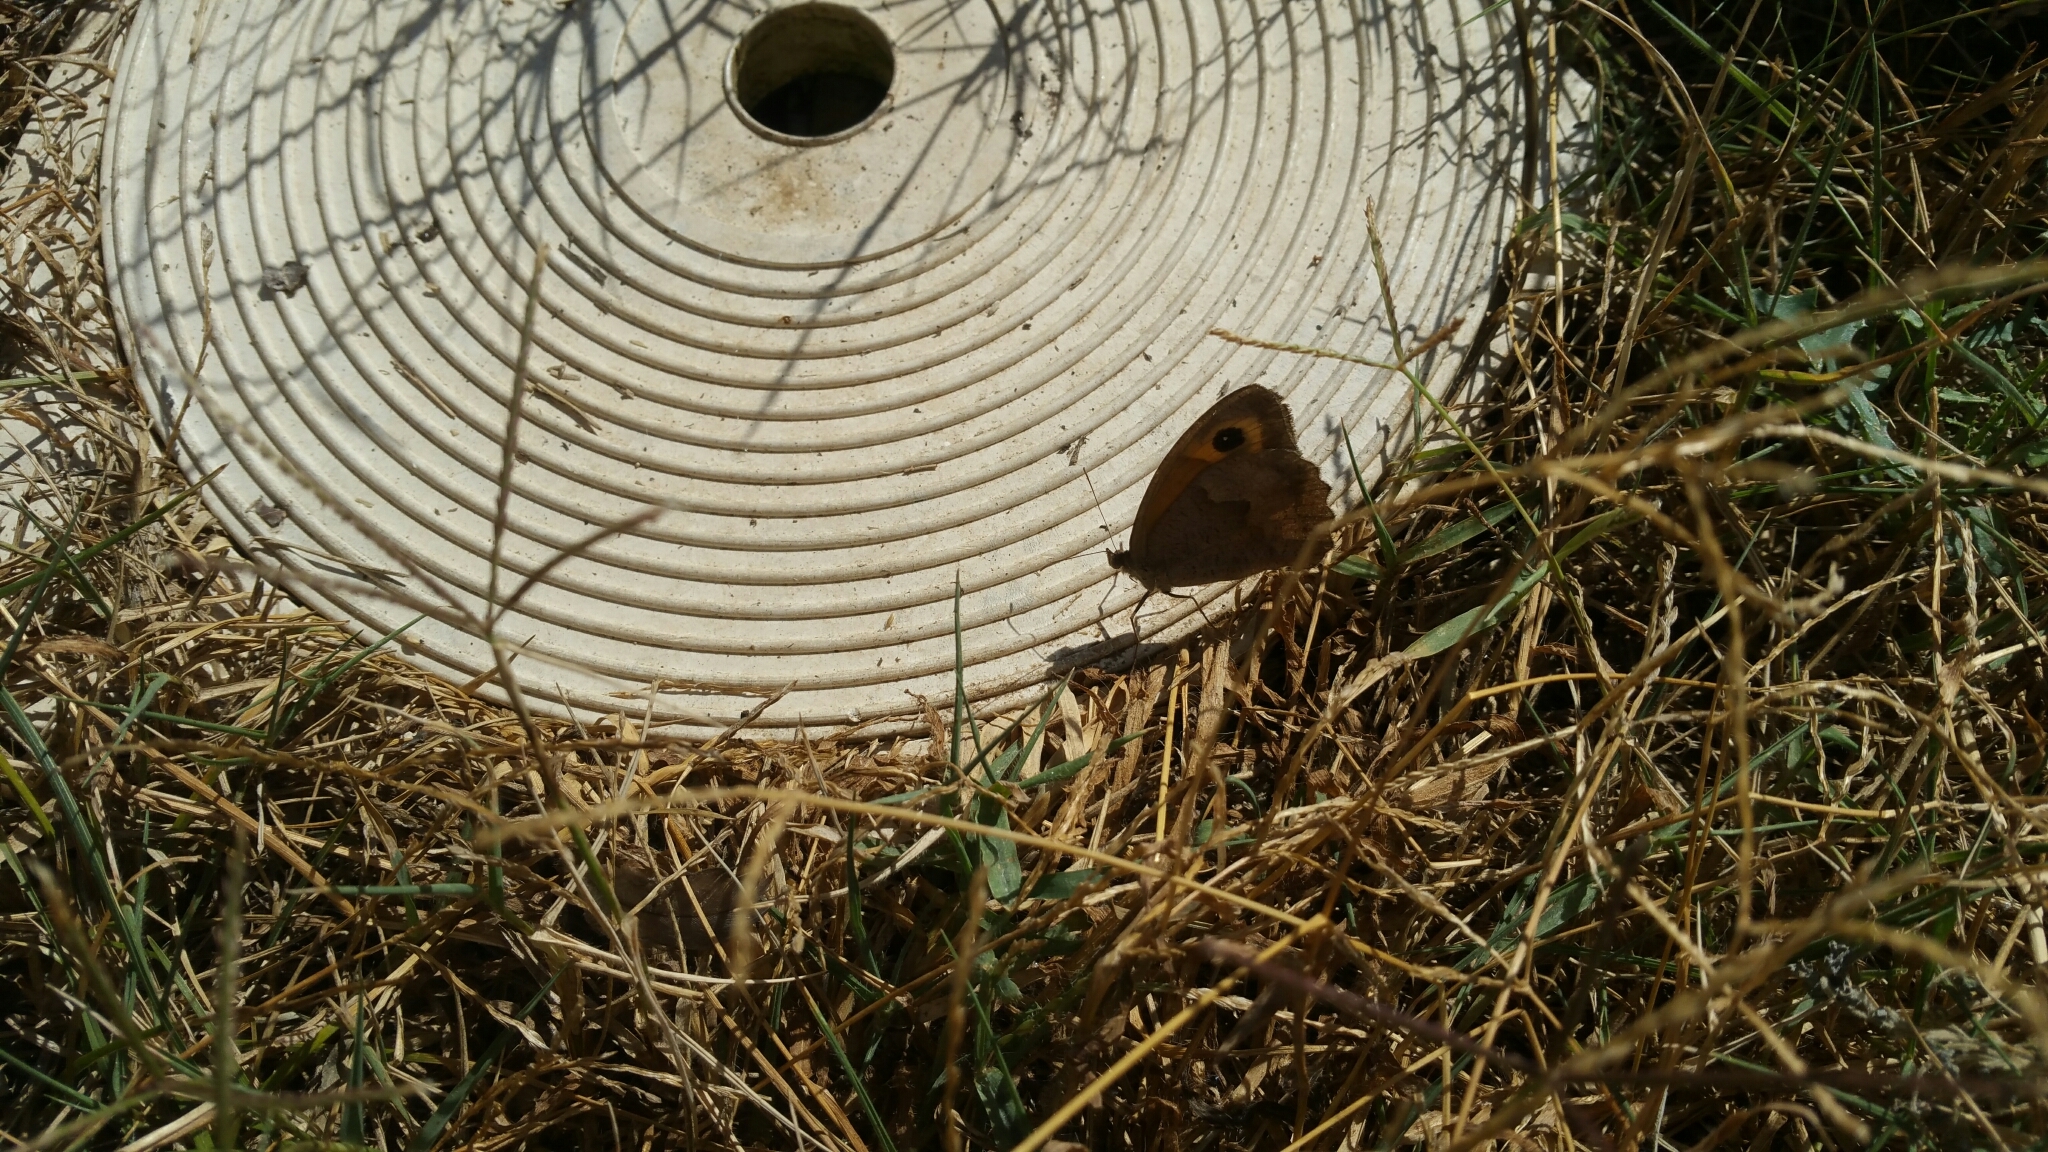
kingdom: Animalia
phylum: Arthropoda
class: Insecta
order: Lepidoptera
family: Nymphalidae
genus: Maniola
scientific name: Maniola jurtina
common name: Meadow brown
